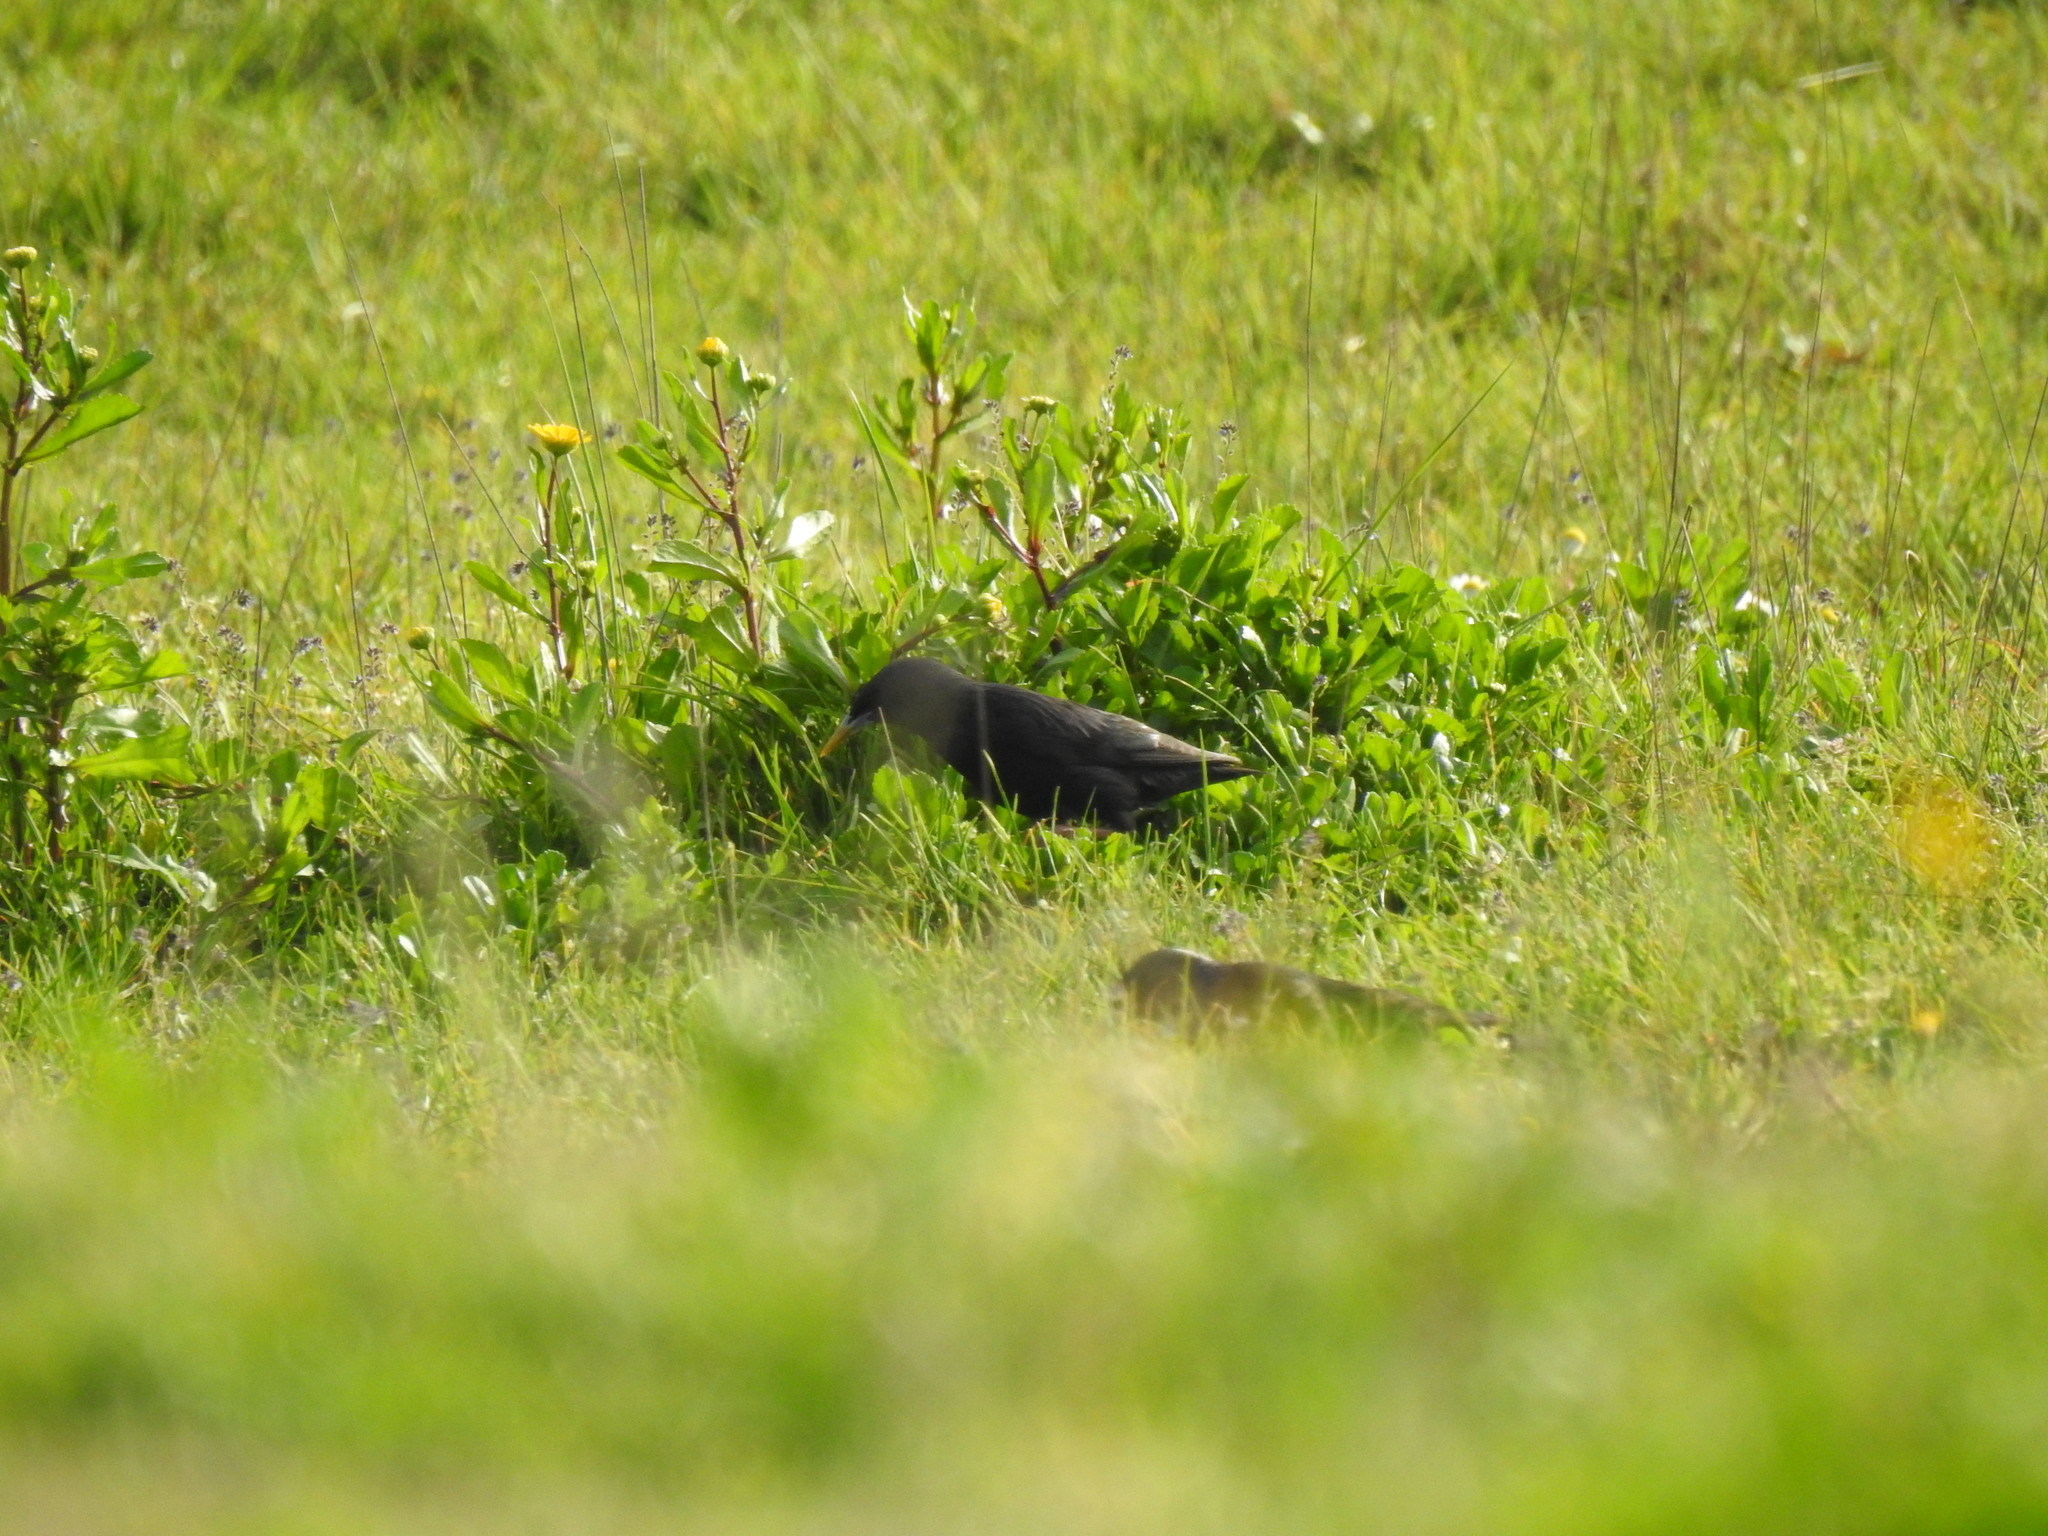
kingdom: Animalia
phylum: Chordata
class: Aves
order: Passeriformes
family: Sturnidae
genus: Sturnus
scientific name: Sturnus unicolor
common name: Spotless starling
